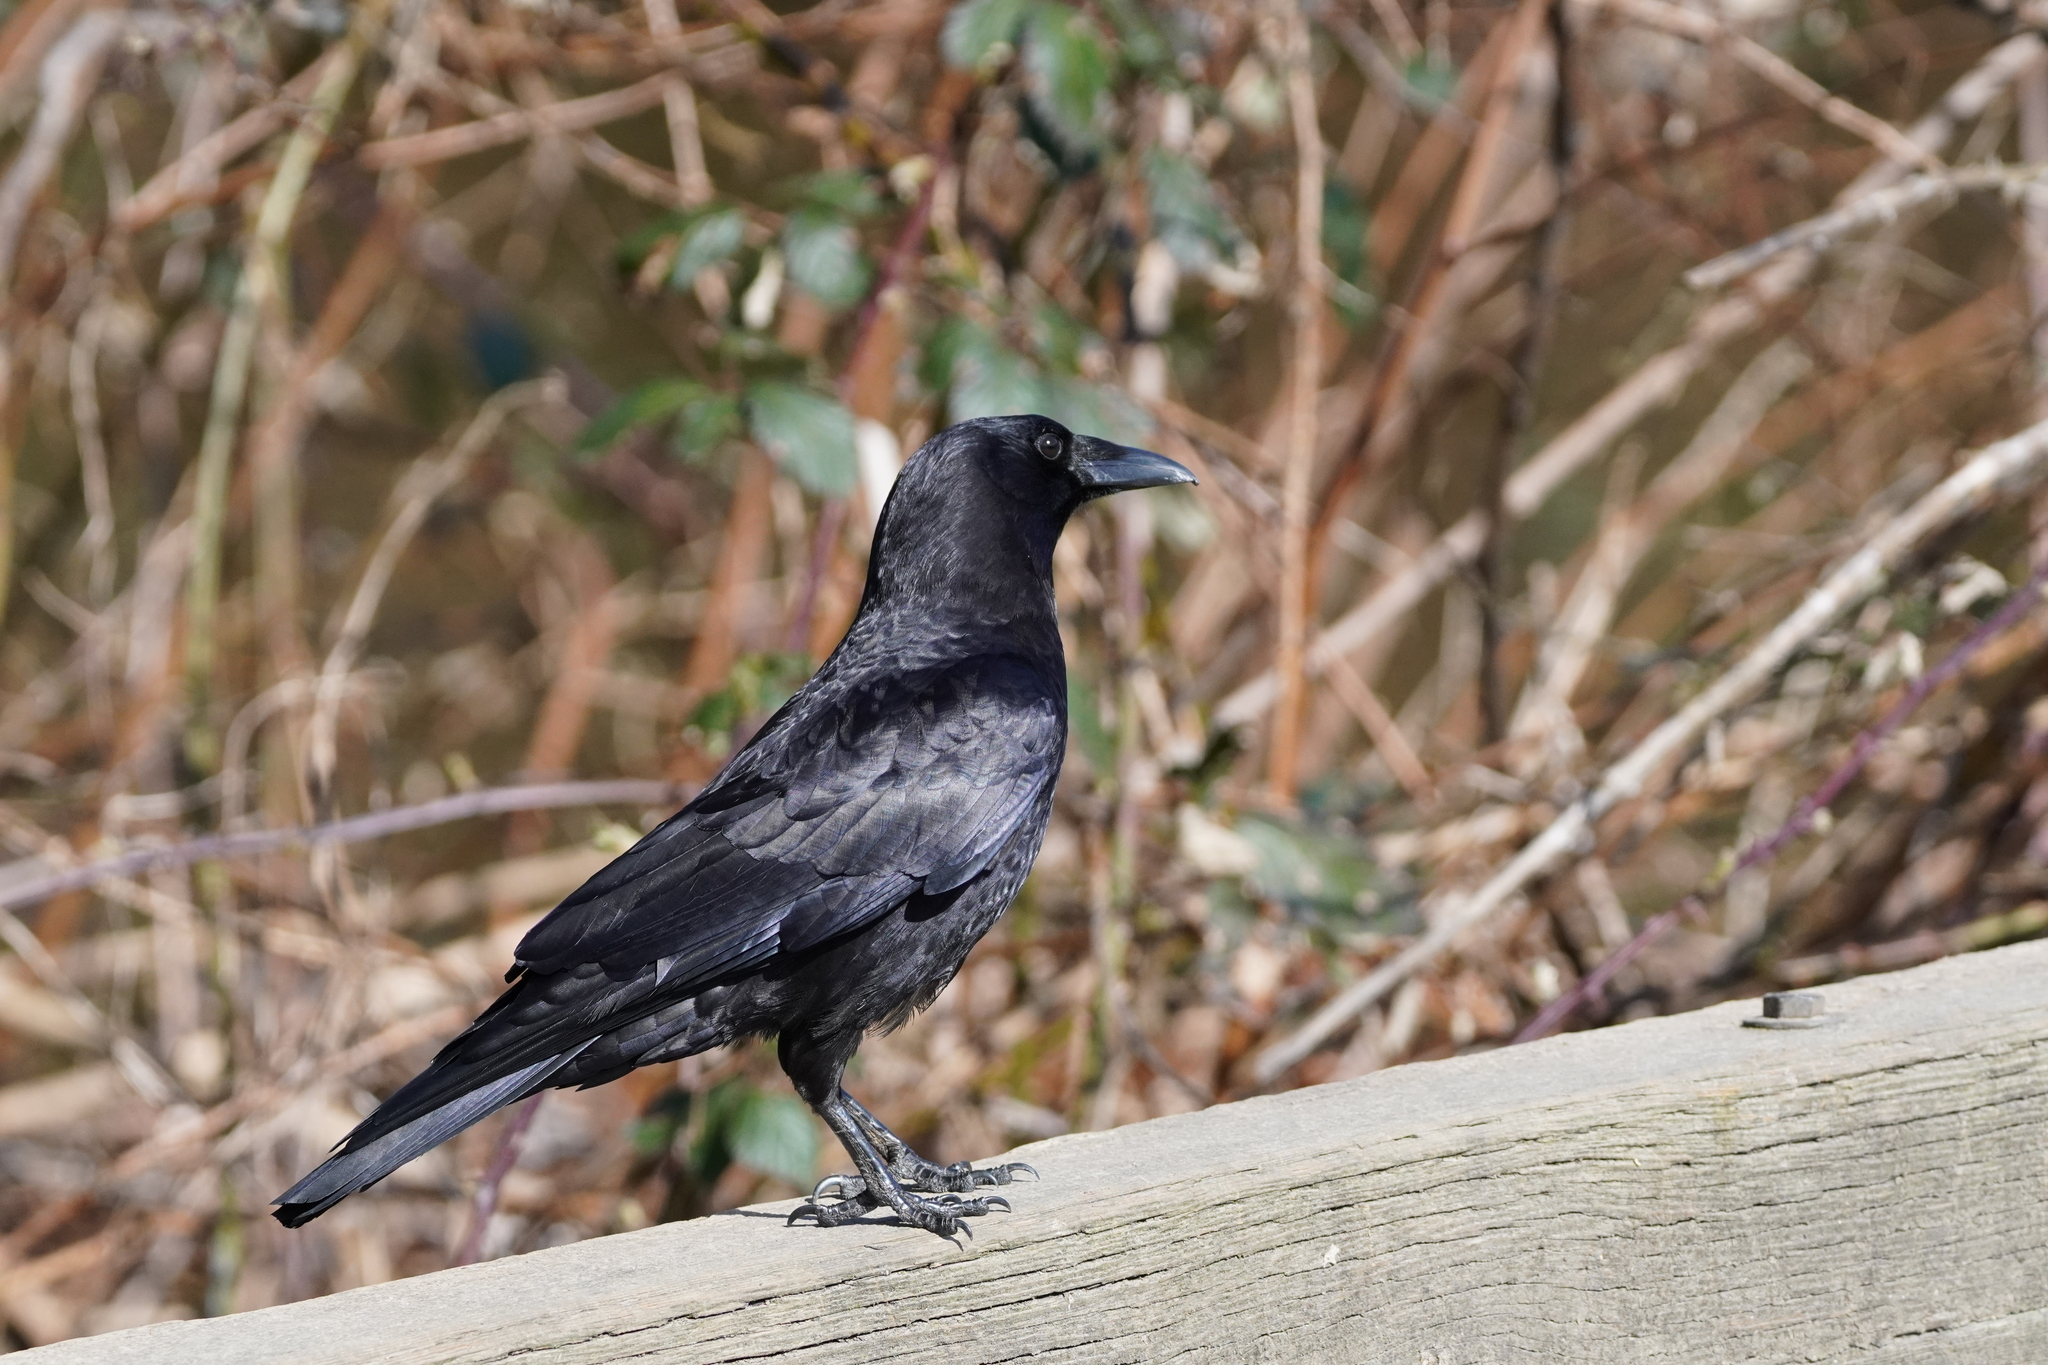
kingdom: Animalia
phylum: Chordata
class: Aves
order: Passeriformes
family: Corvidae
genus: Corvus
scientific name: Corvus brachyrhynchos
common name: American crow
